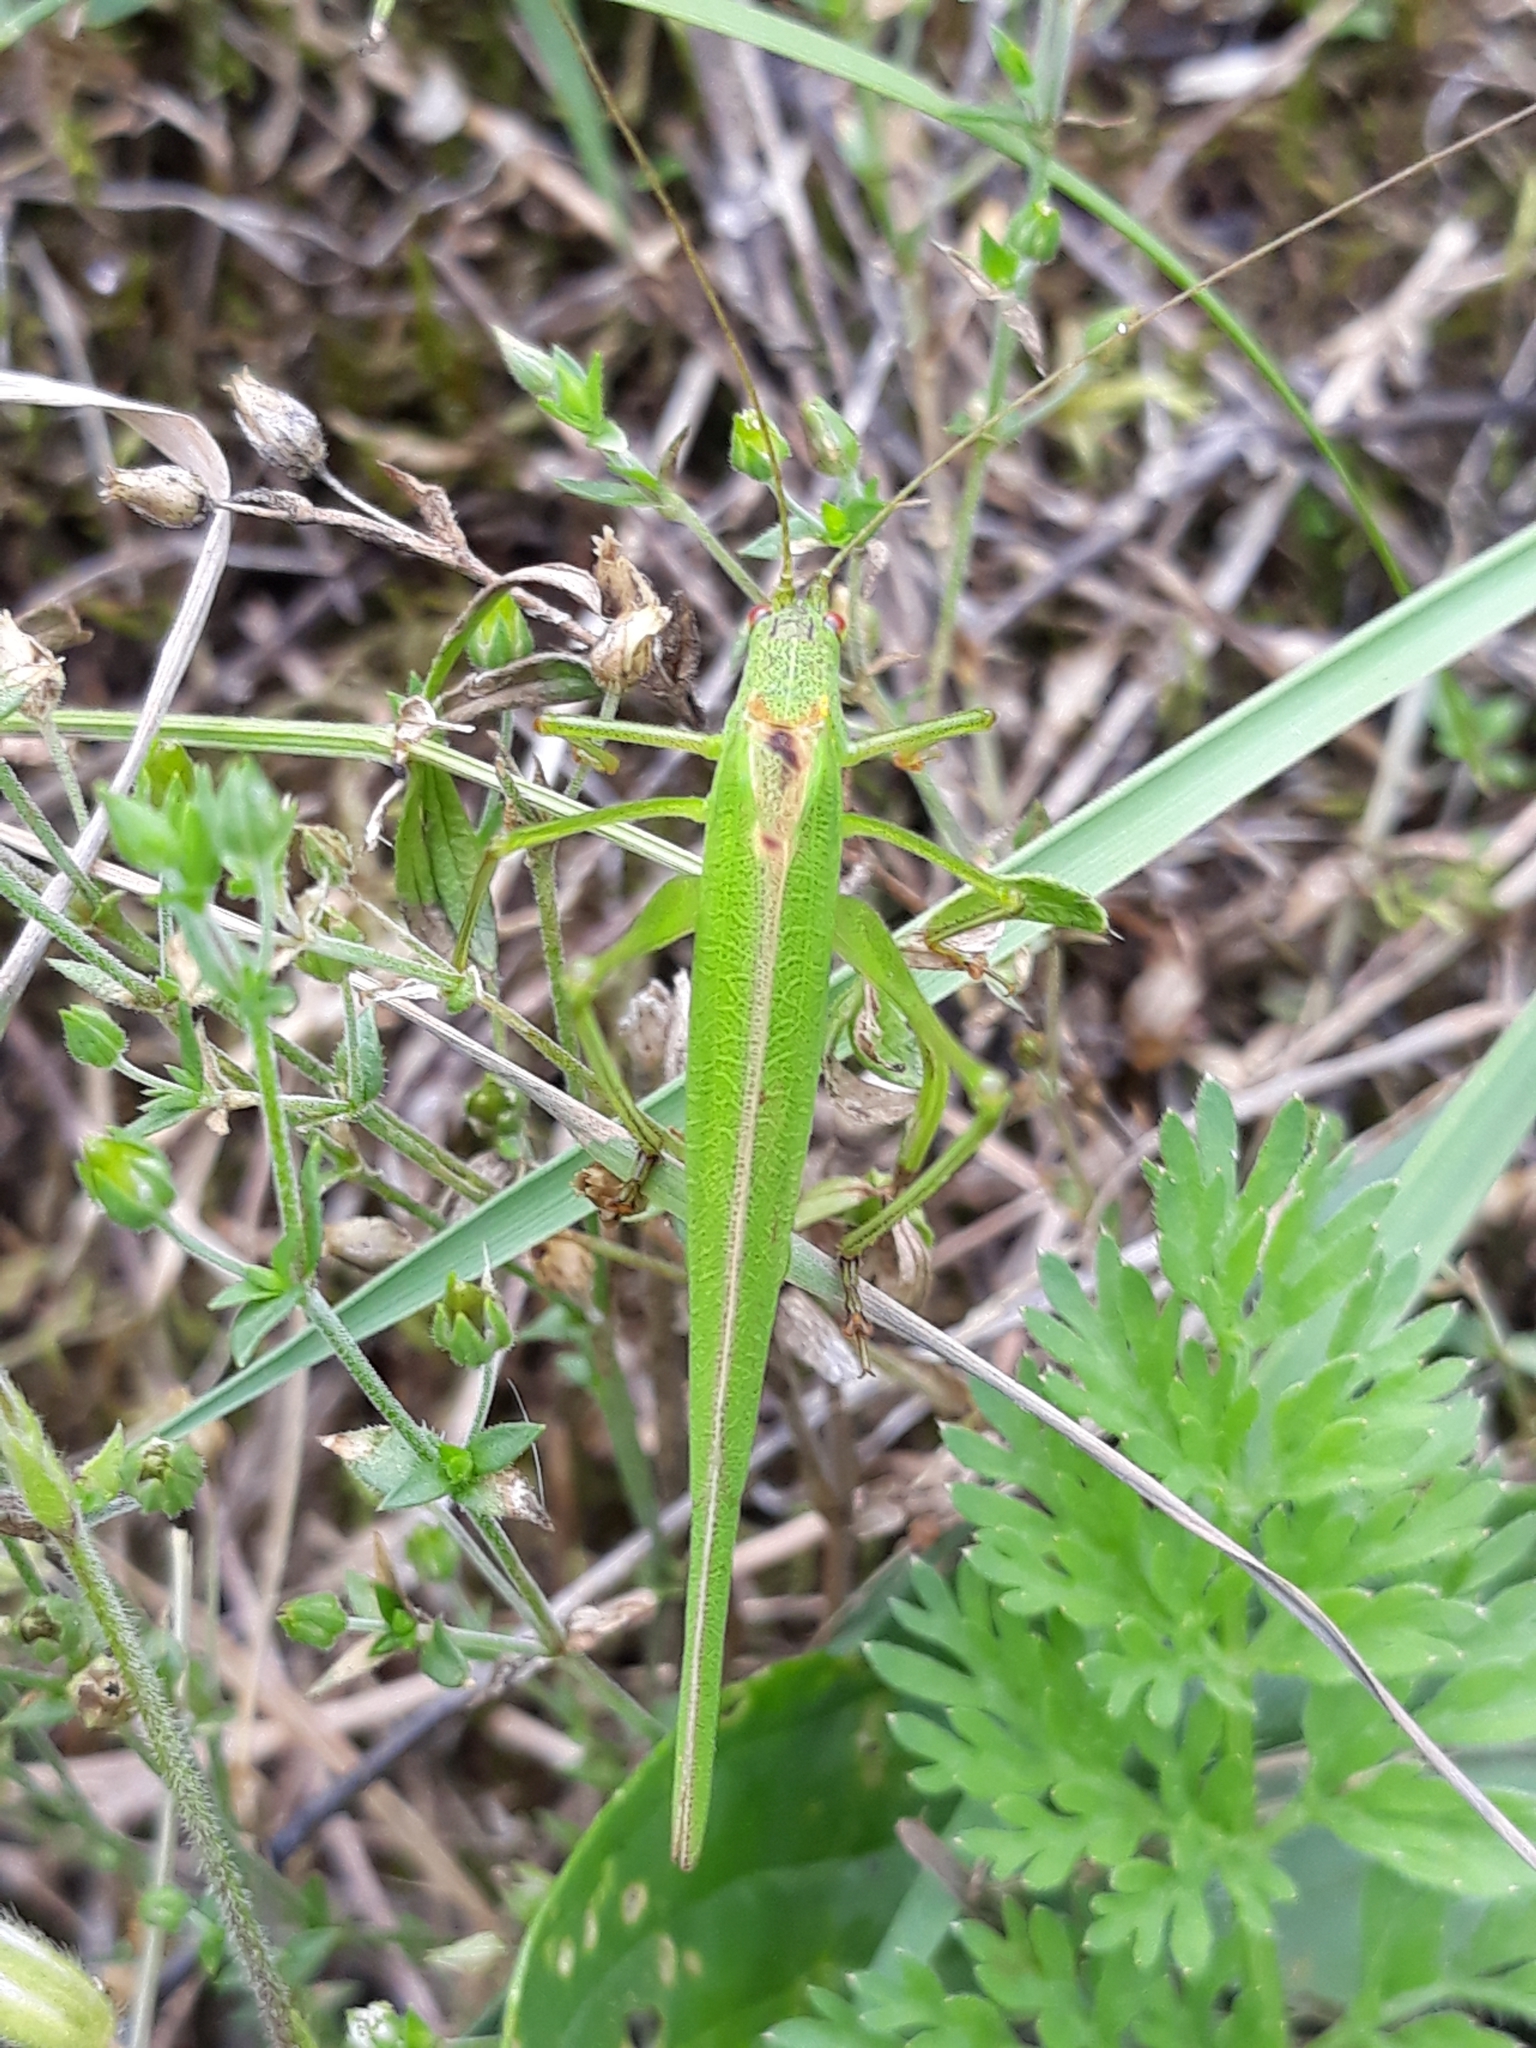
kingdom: Animalia
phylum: Arthropoda
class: Insecta
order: Orthoptera
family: Tettigoniidae
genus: Phaneroptera
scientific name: Phaneroptera falcata
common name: Sickle-bearing bush-cricket
